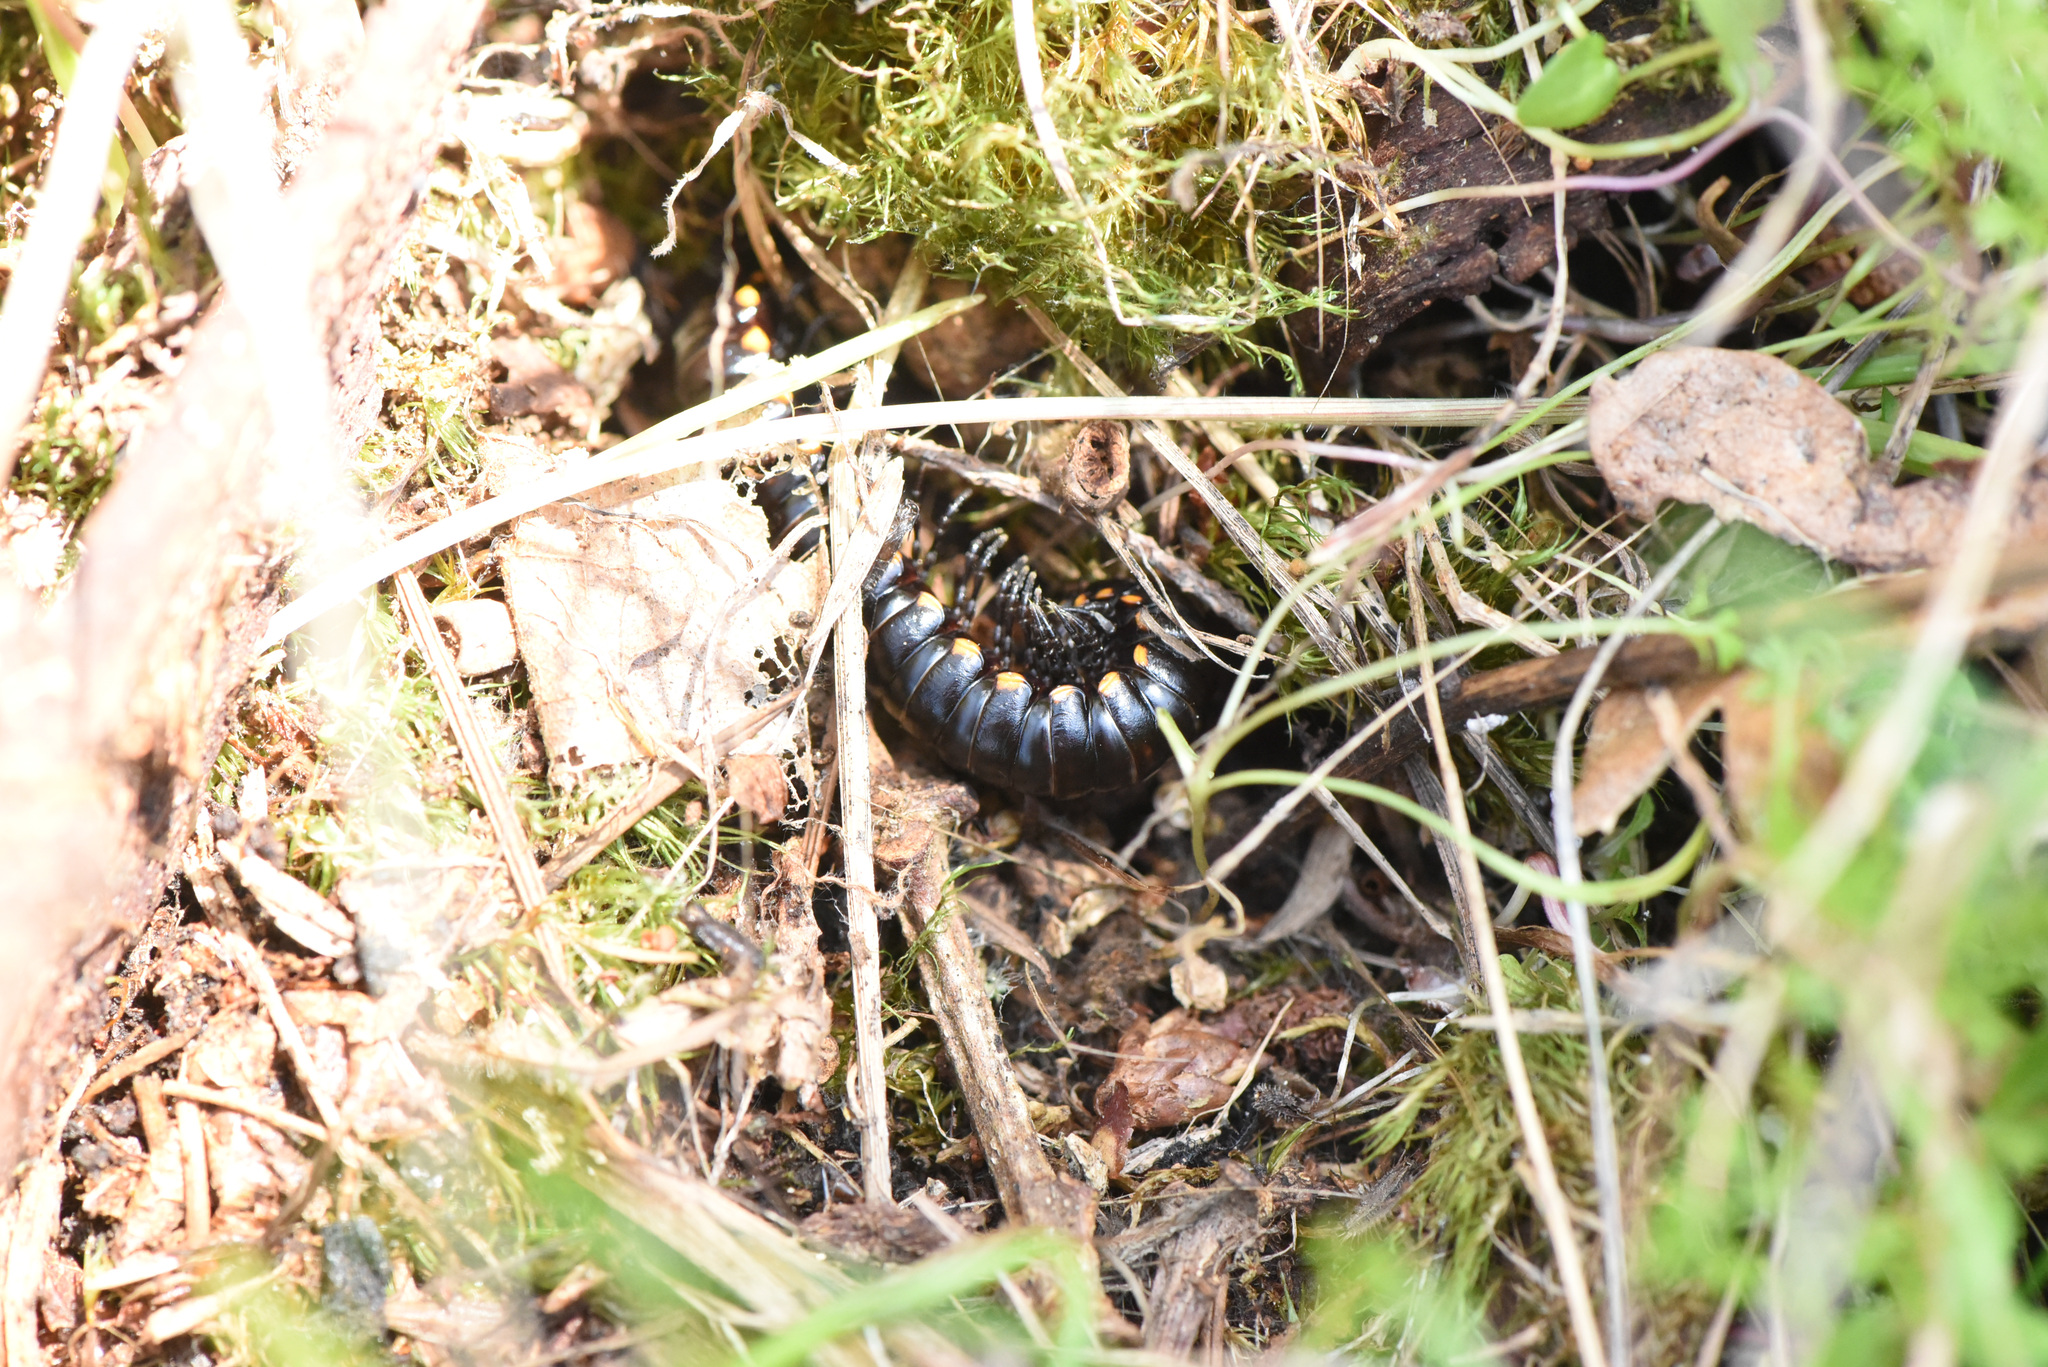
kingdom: Animalia
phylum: Arthropoda
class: Diplopoda
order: Polydesmida
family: Xystodesmidae
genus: Harpaphe
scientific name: Harpaphe haydeniana
